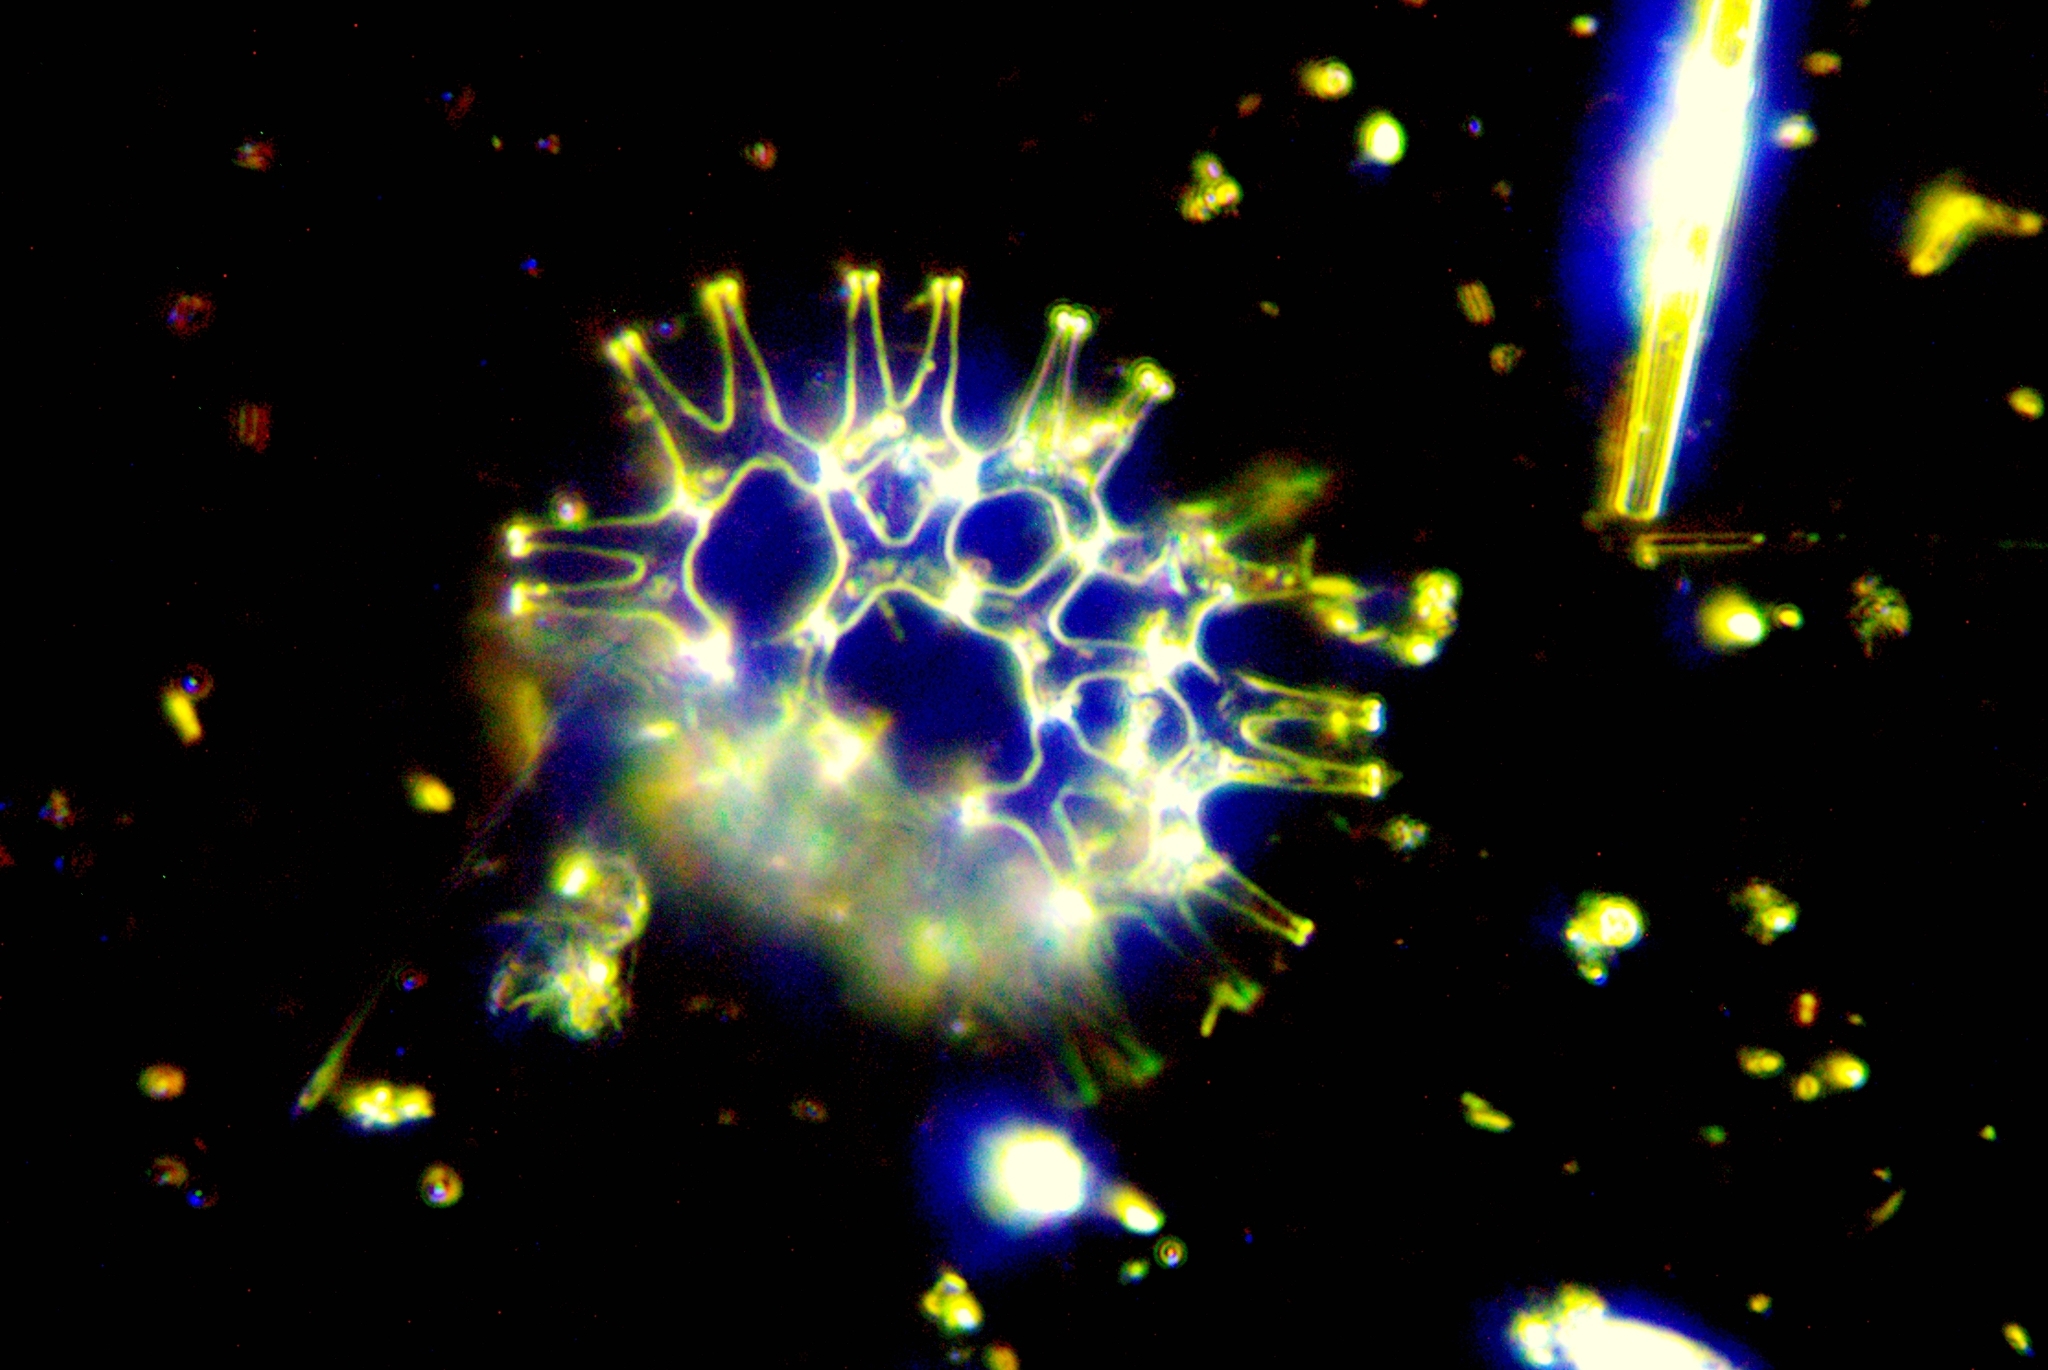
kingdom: Plantae
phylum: Chlorophyta
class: Chlorophyceae
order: Sphaeropleales
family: Hydrodictyaceae
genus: Lacunastrum
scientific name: Lacunastrum gracillimum
